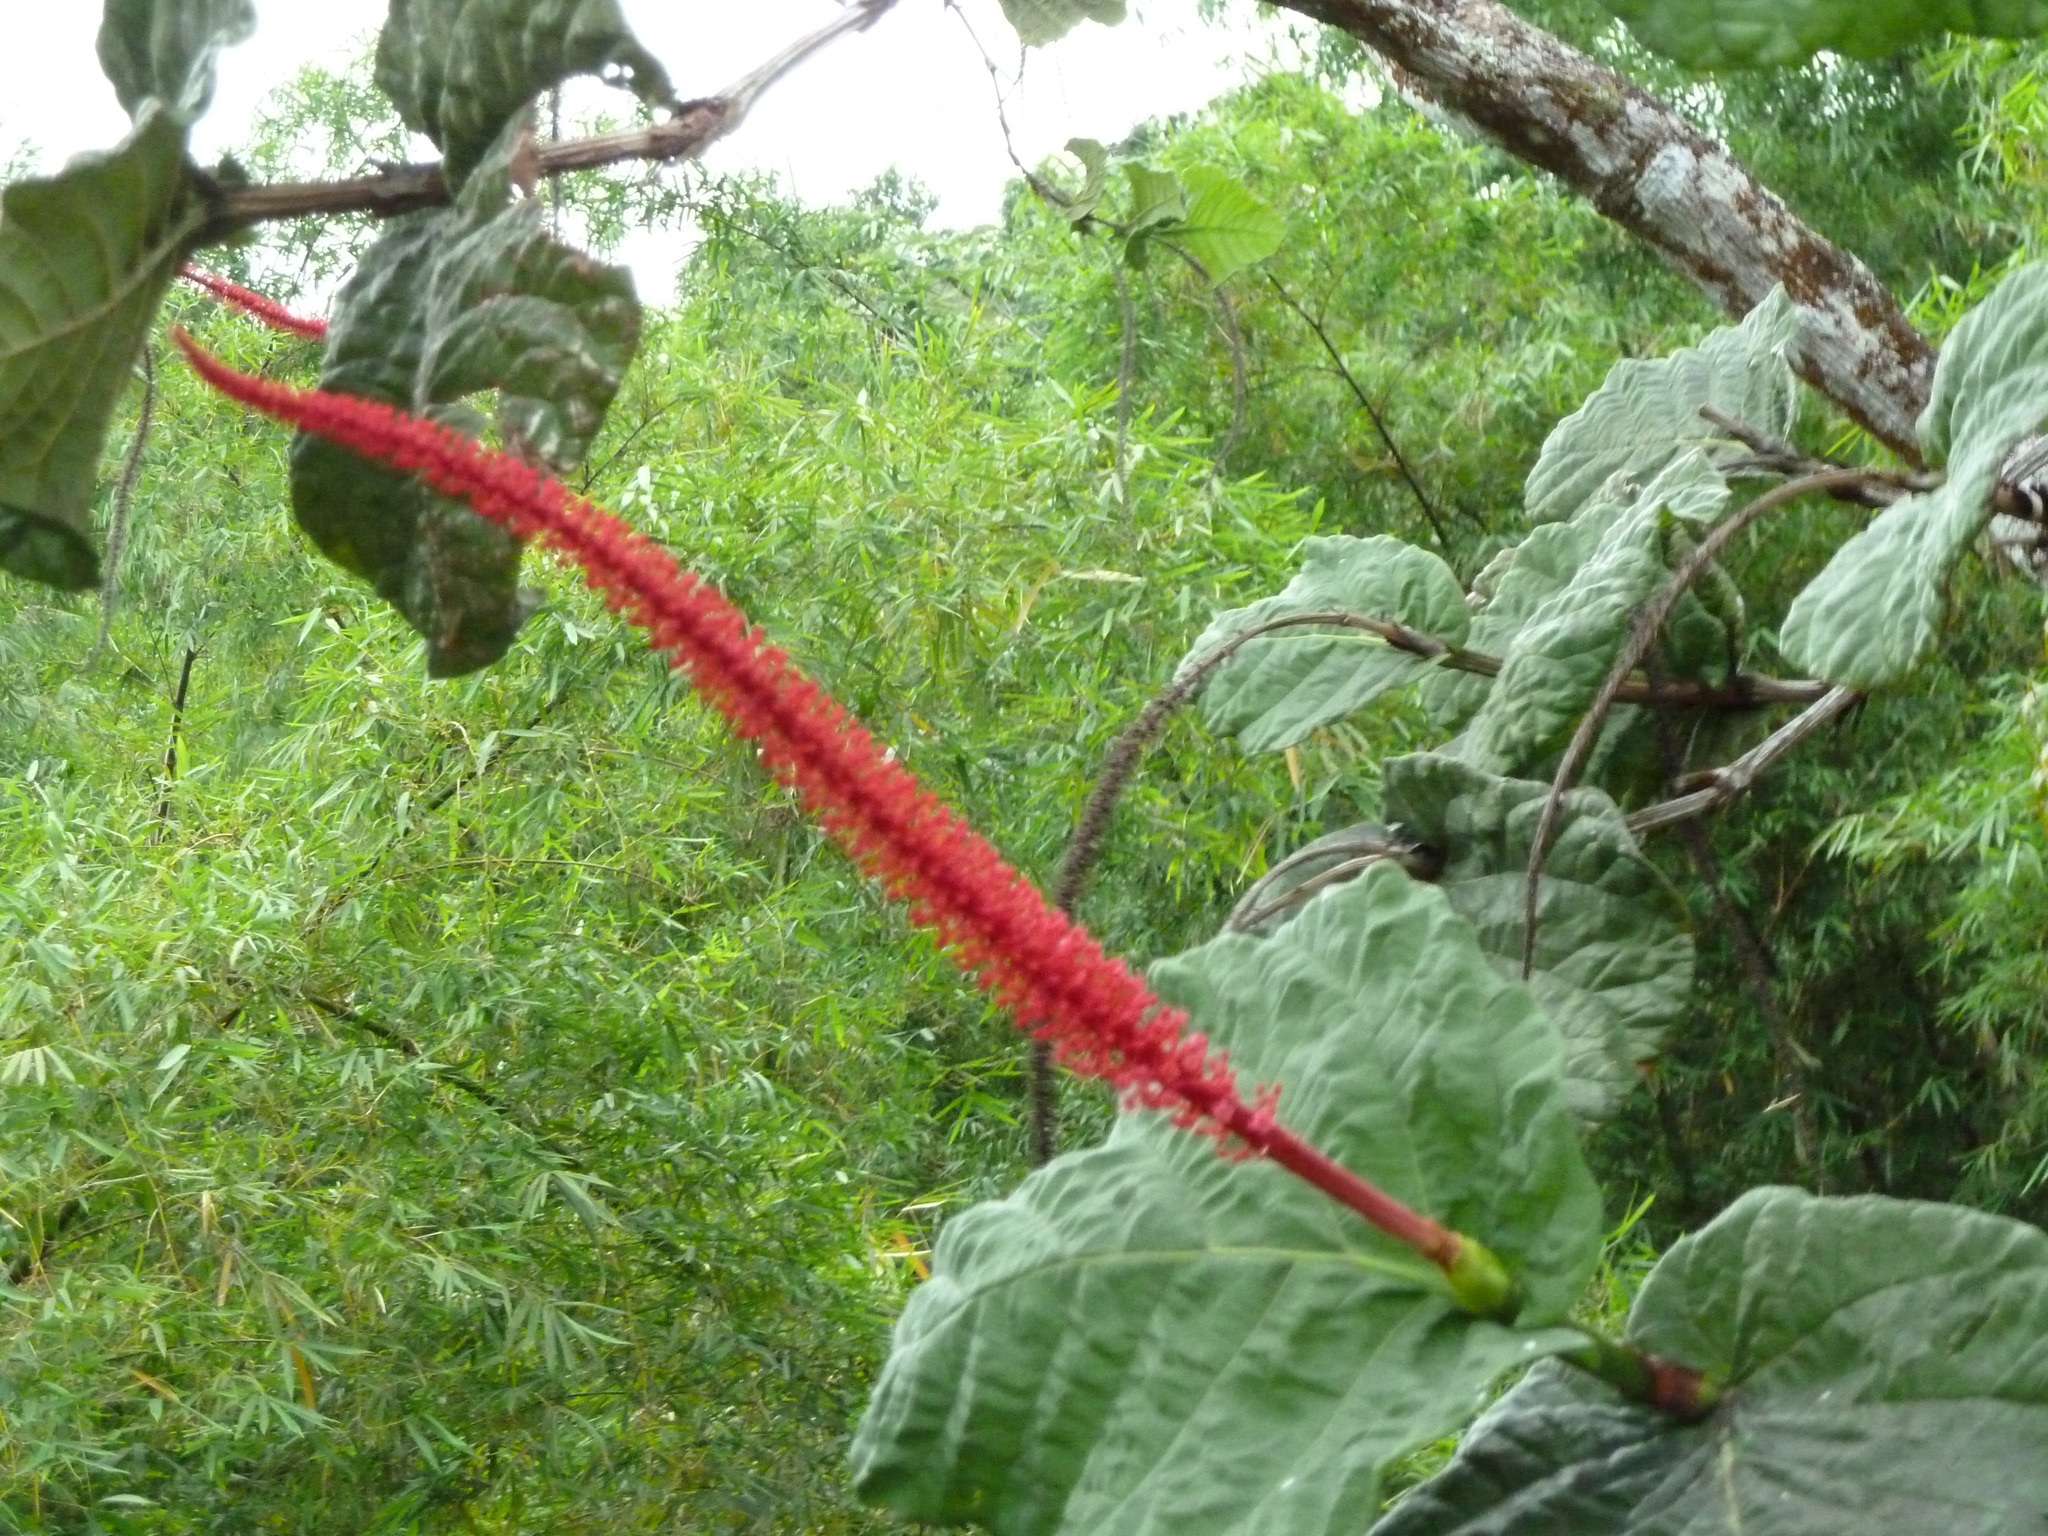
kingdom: Plantae
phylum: Tracheophyta
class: Magnoliopsida
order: Caryophyllales
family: Polygonaceae
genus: Coccoloba
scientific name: Coccoloba rugosa
